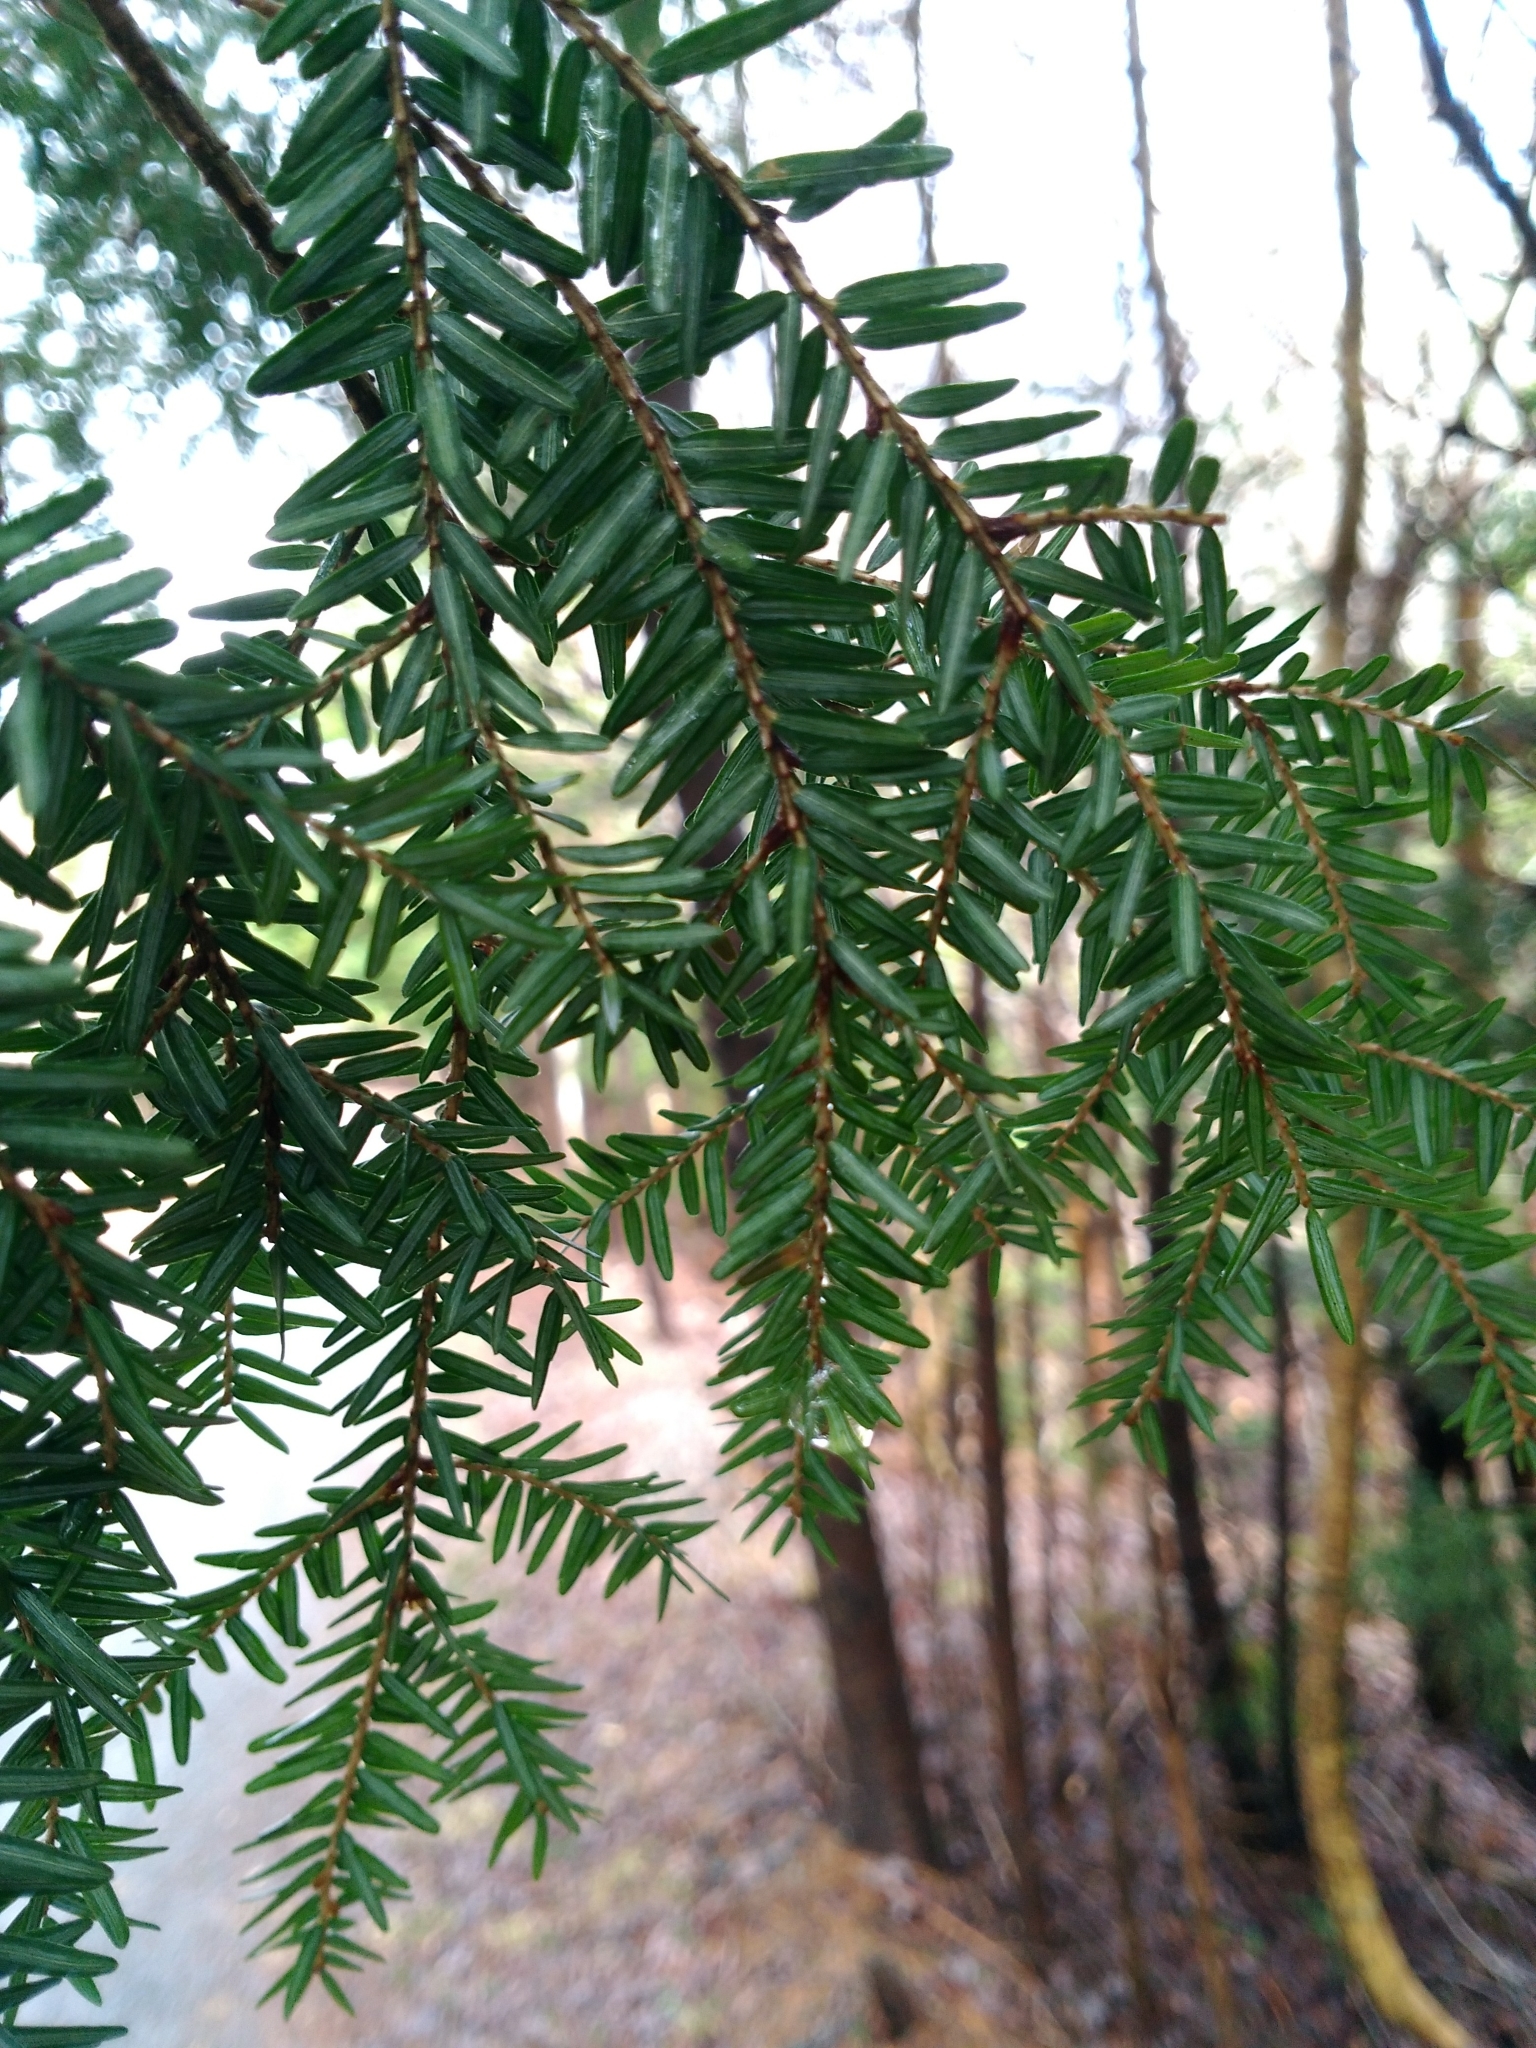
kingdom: Plantae
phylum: Tracheophyta
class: Pinopsida
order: Pinales
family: Pinaceae
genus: Tsuga
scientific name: Tsuga canadensis
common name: Eastern hemlock
